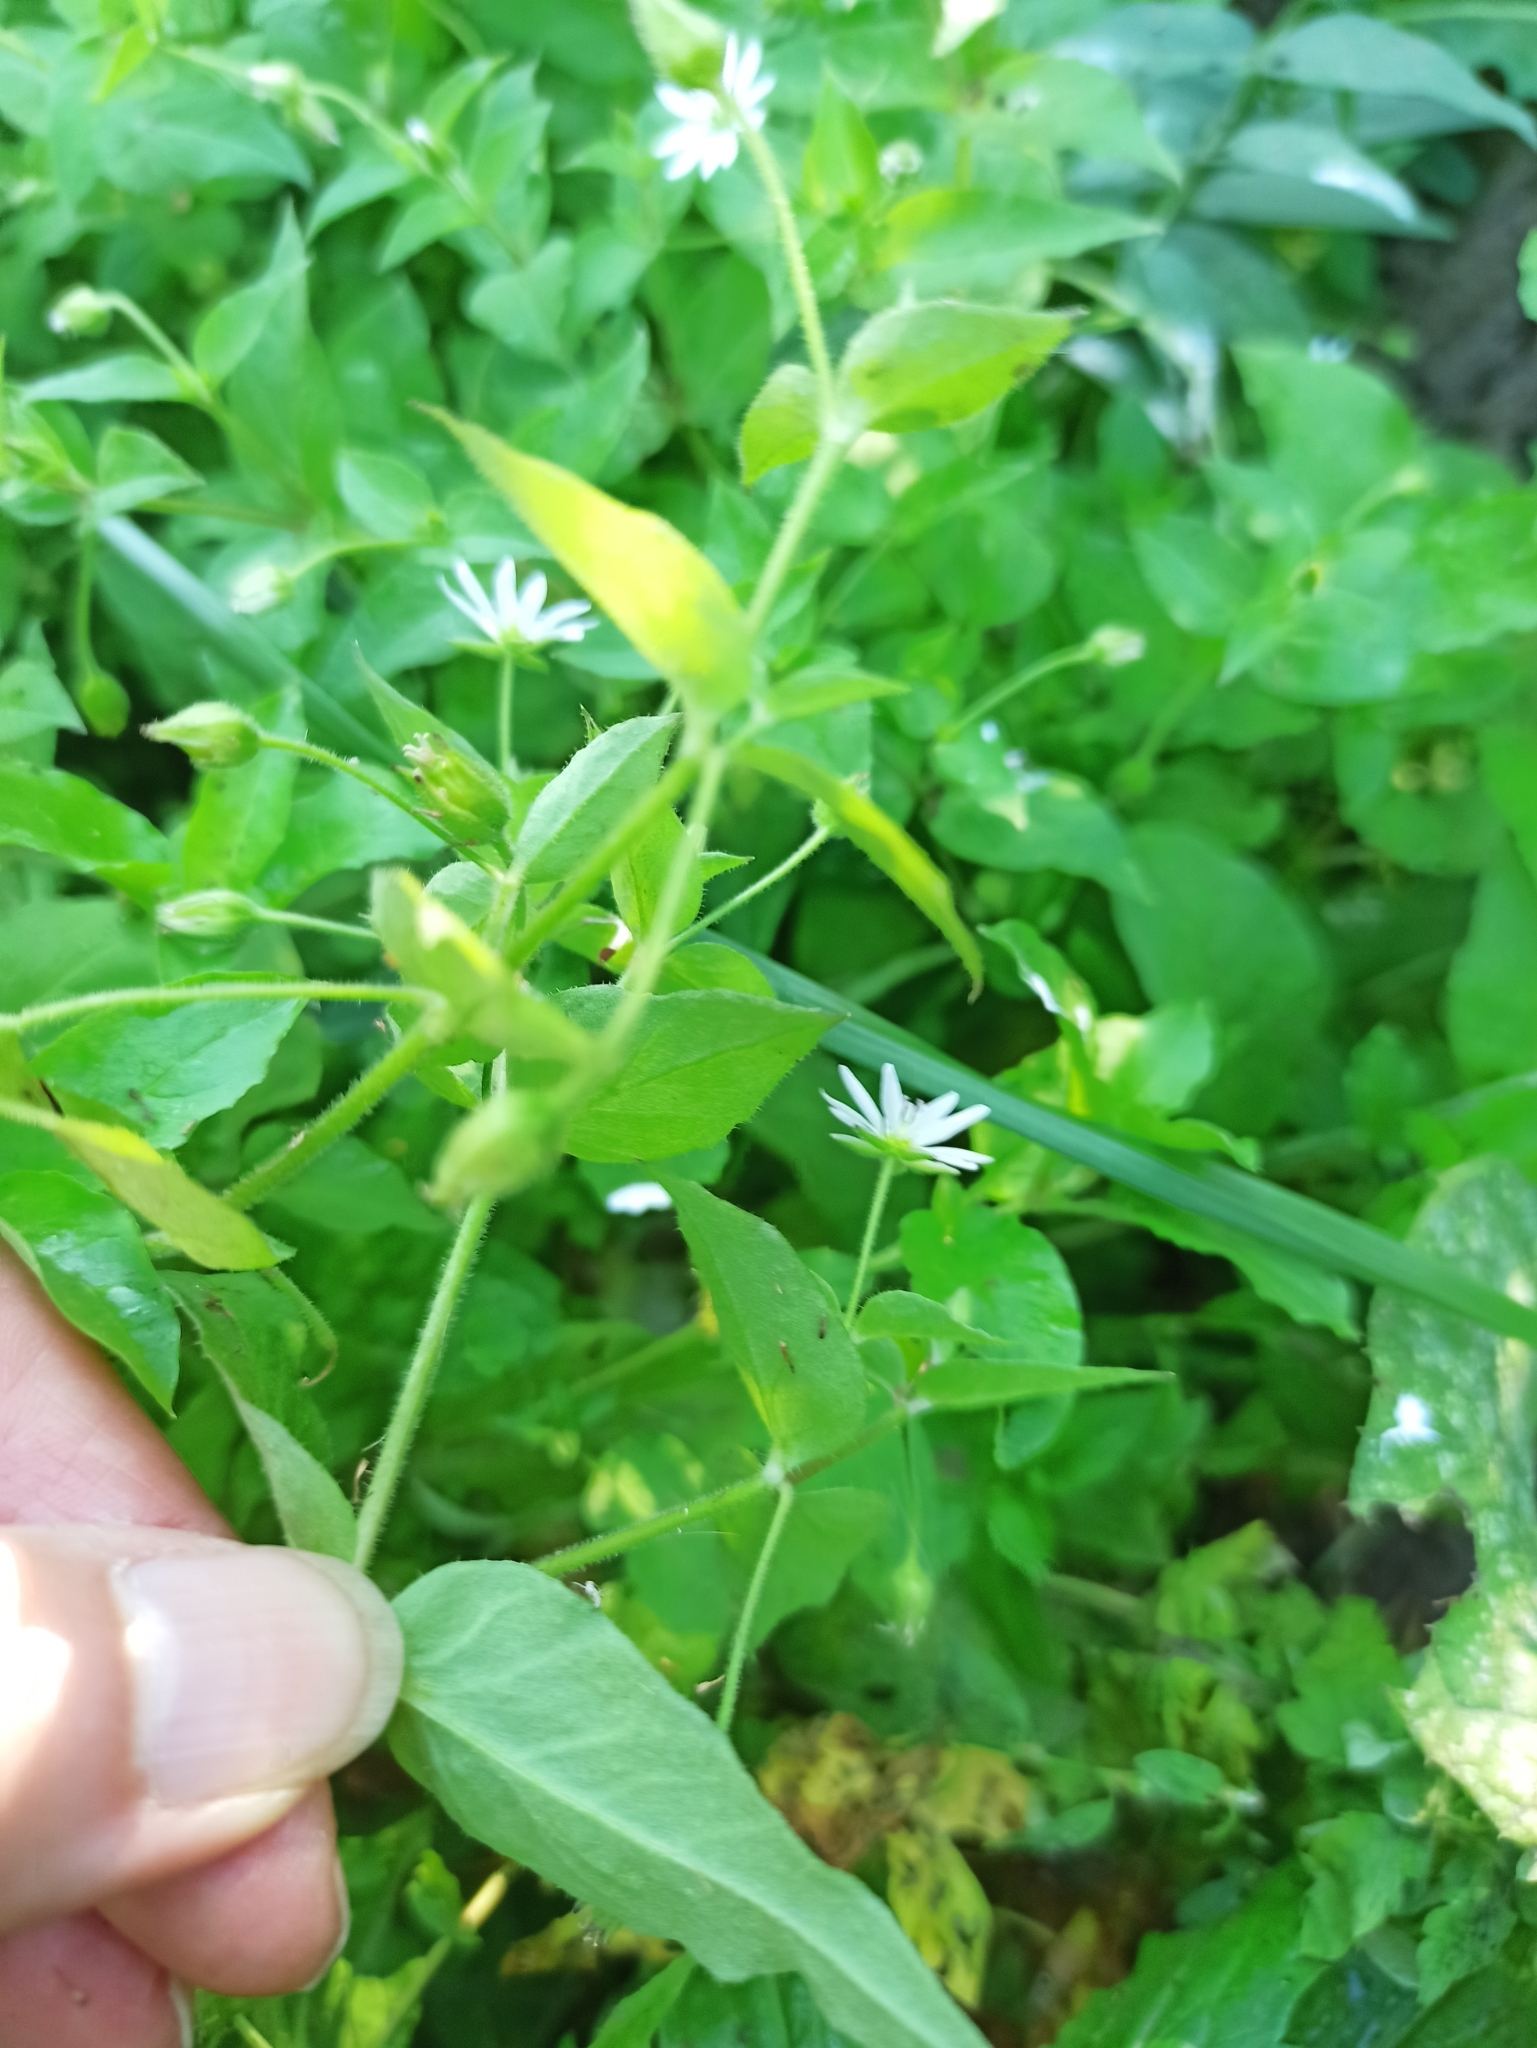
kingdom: Plantae
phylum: Tracheophyta
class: Magnoliopsida
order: Caryophyllales
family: Caryophyllaceae
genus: Stellaria
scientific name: Stellaria aquatica
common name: Water chickweed
